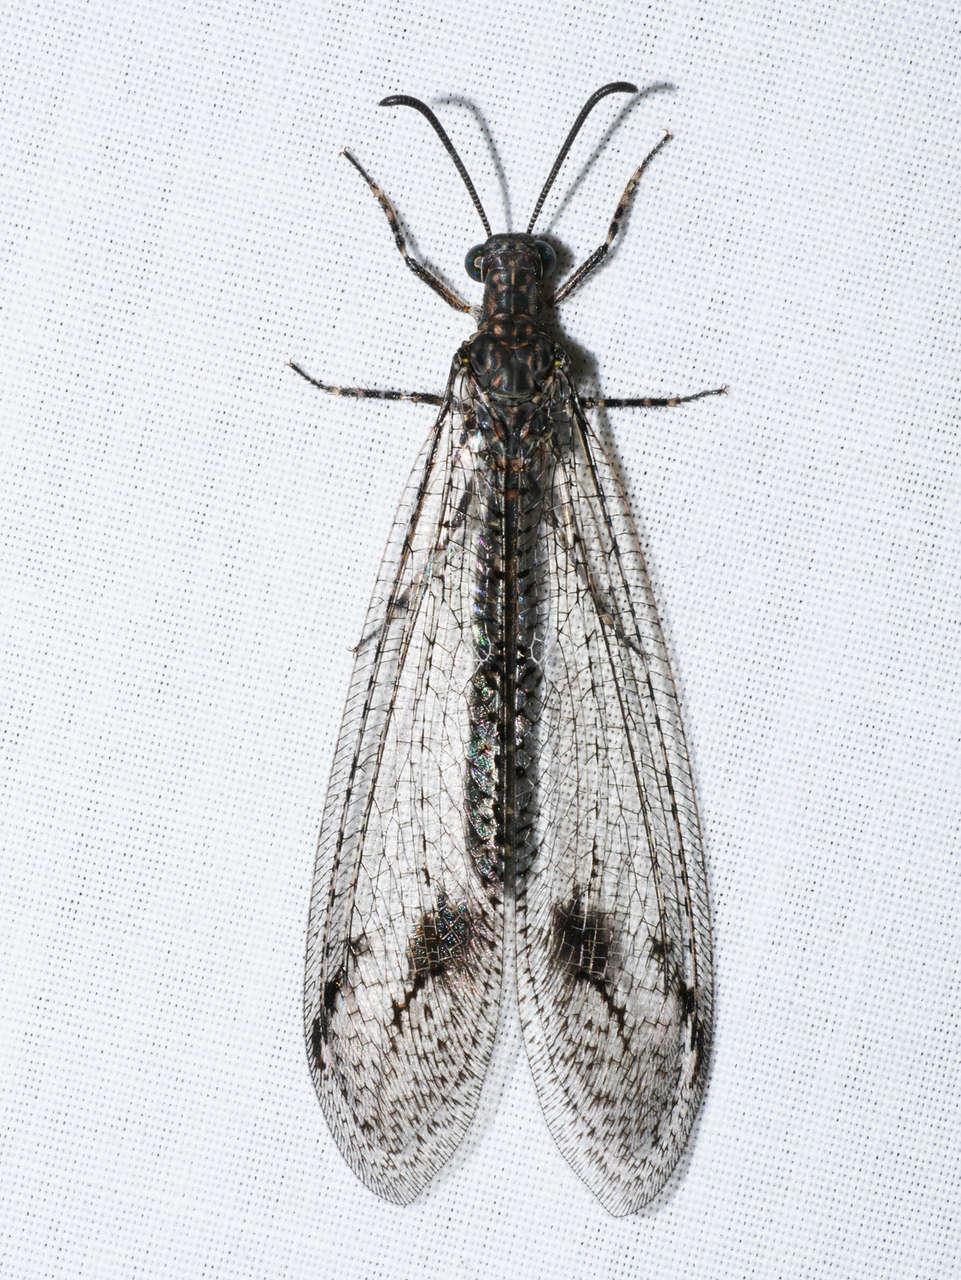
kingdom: Animalia
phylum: Arthropoda
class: Insecta
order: Neuroptera
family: Myrmeleontidae
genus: Austrogymnocnemia
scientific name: Austrogymnocnemia bipunctata
